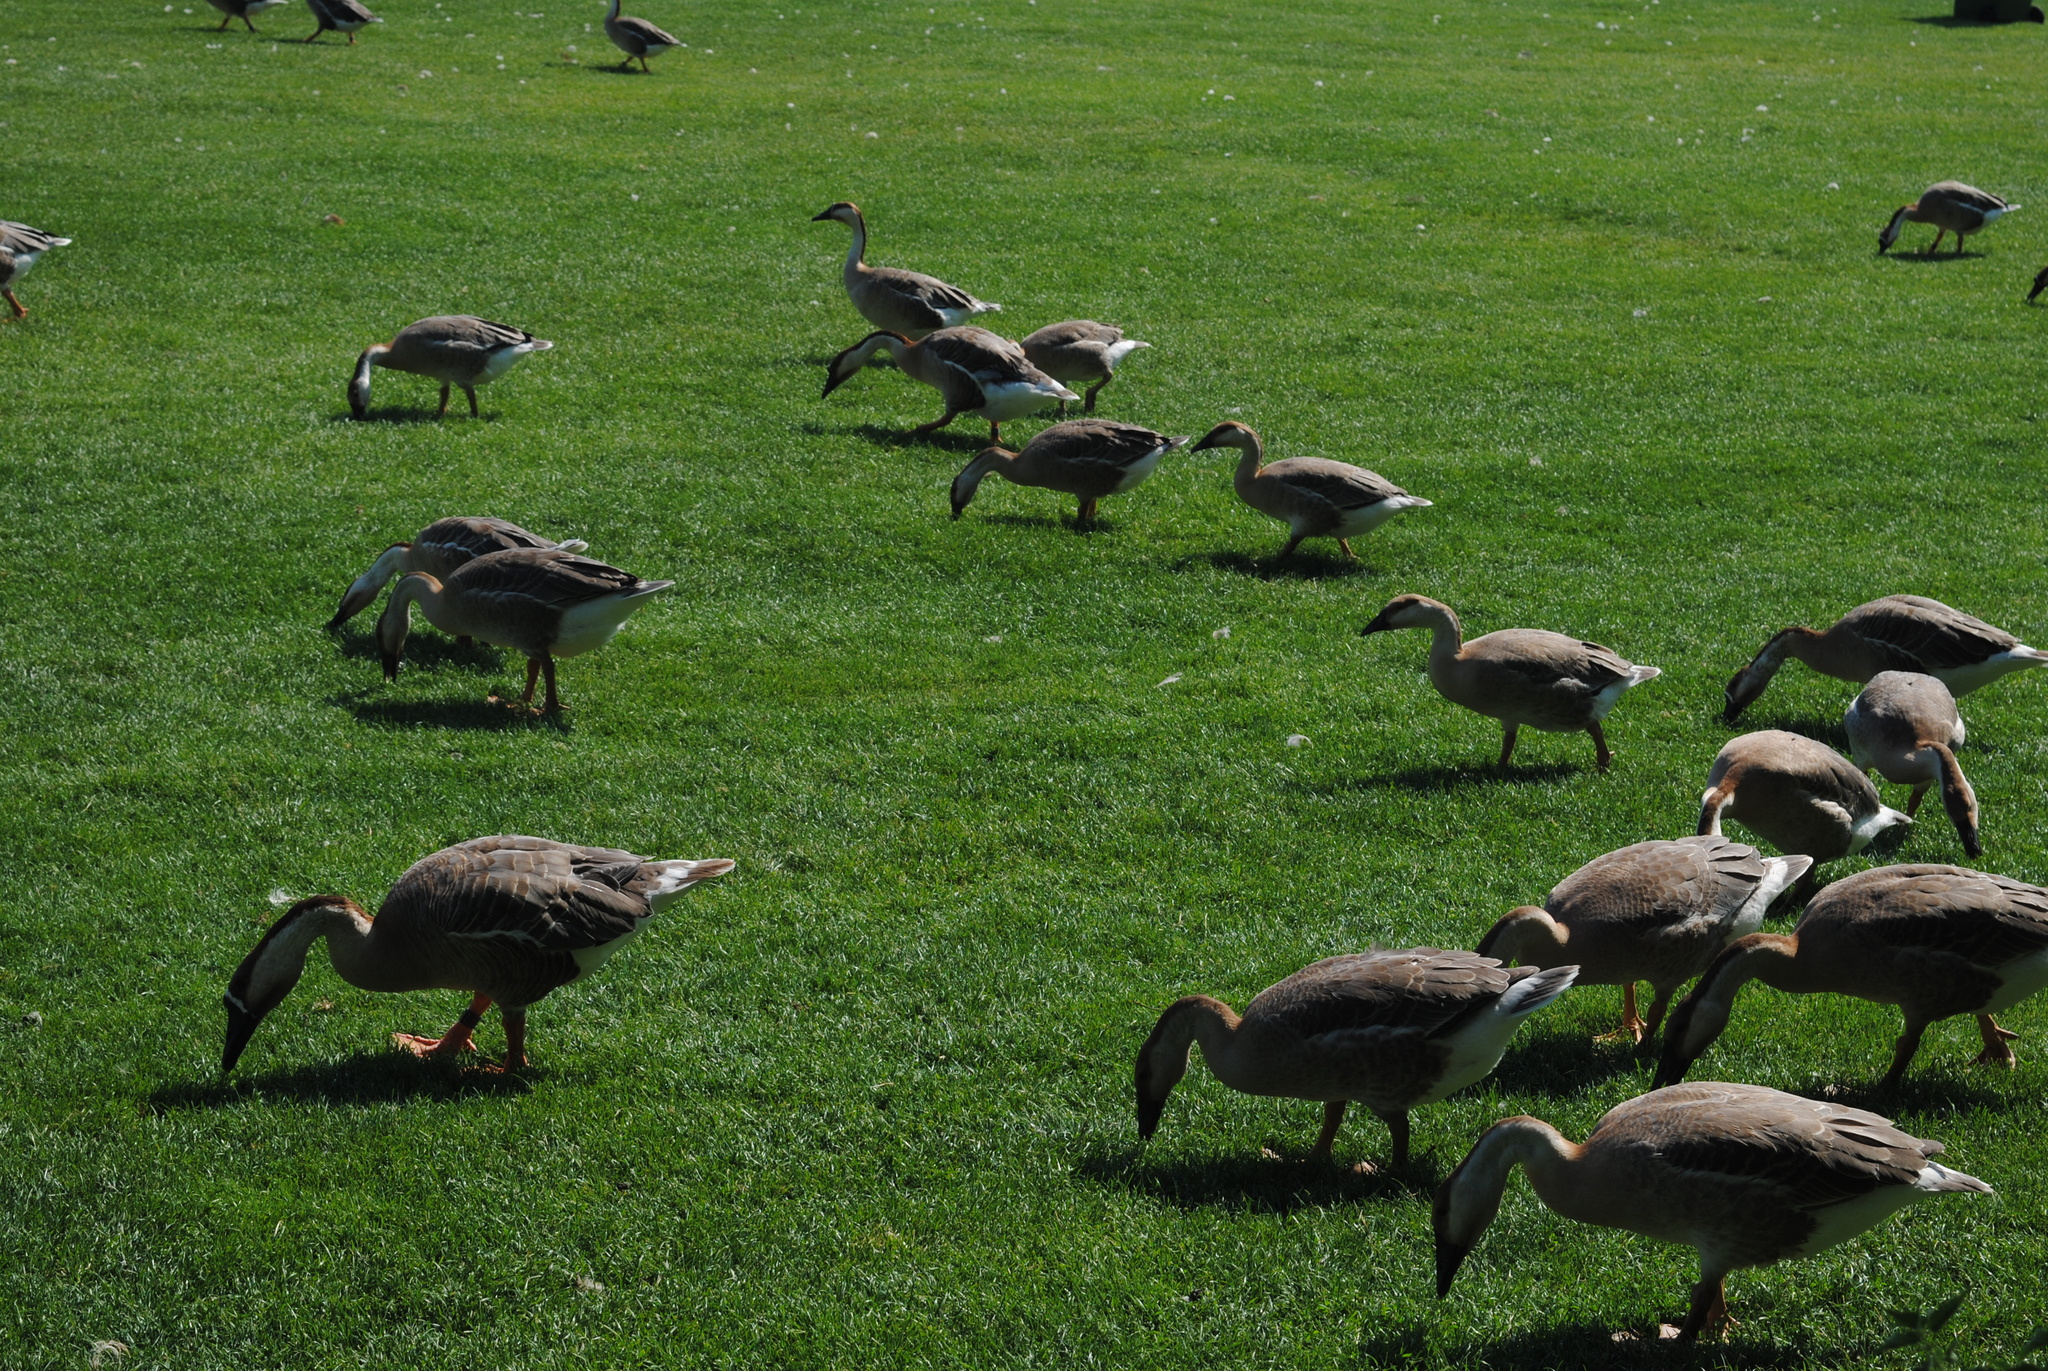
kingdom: Animalia
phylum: Chordata
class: Aves
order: Anseriformes
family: Anatidae
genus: Anser
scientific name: Anser cygnoides
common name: Swan goose
